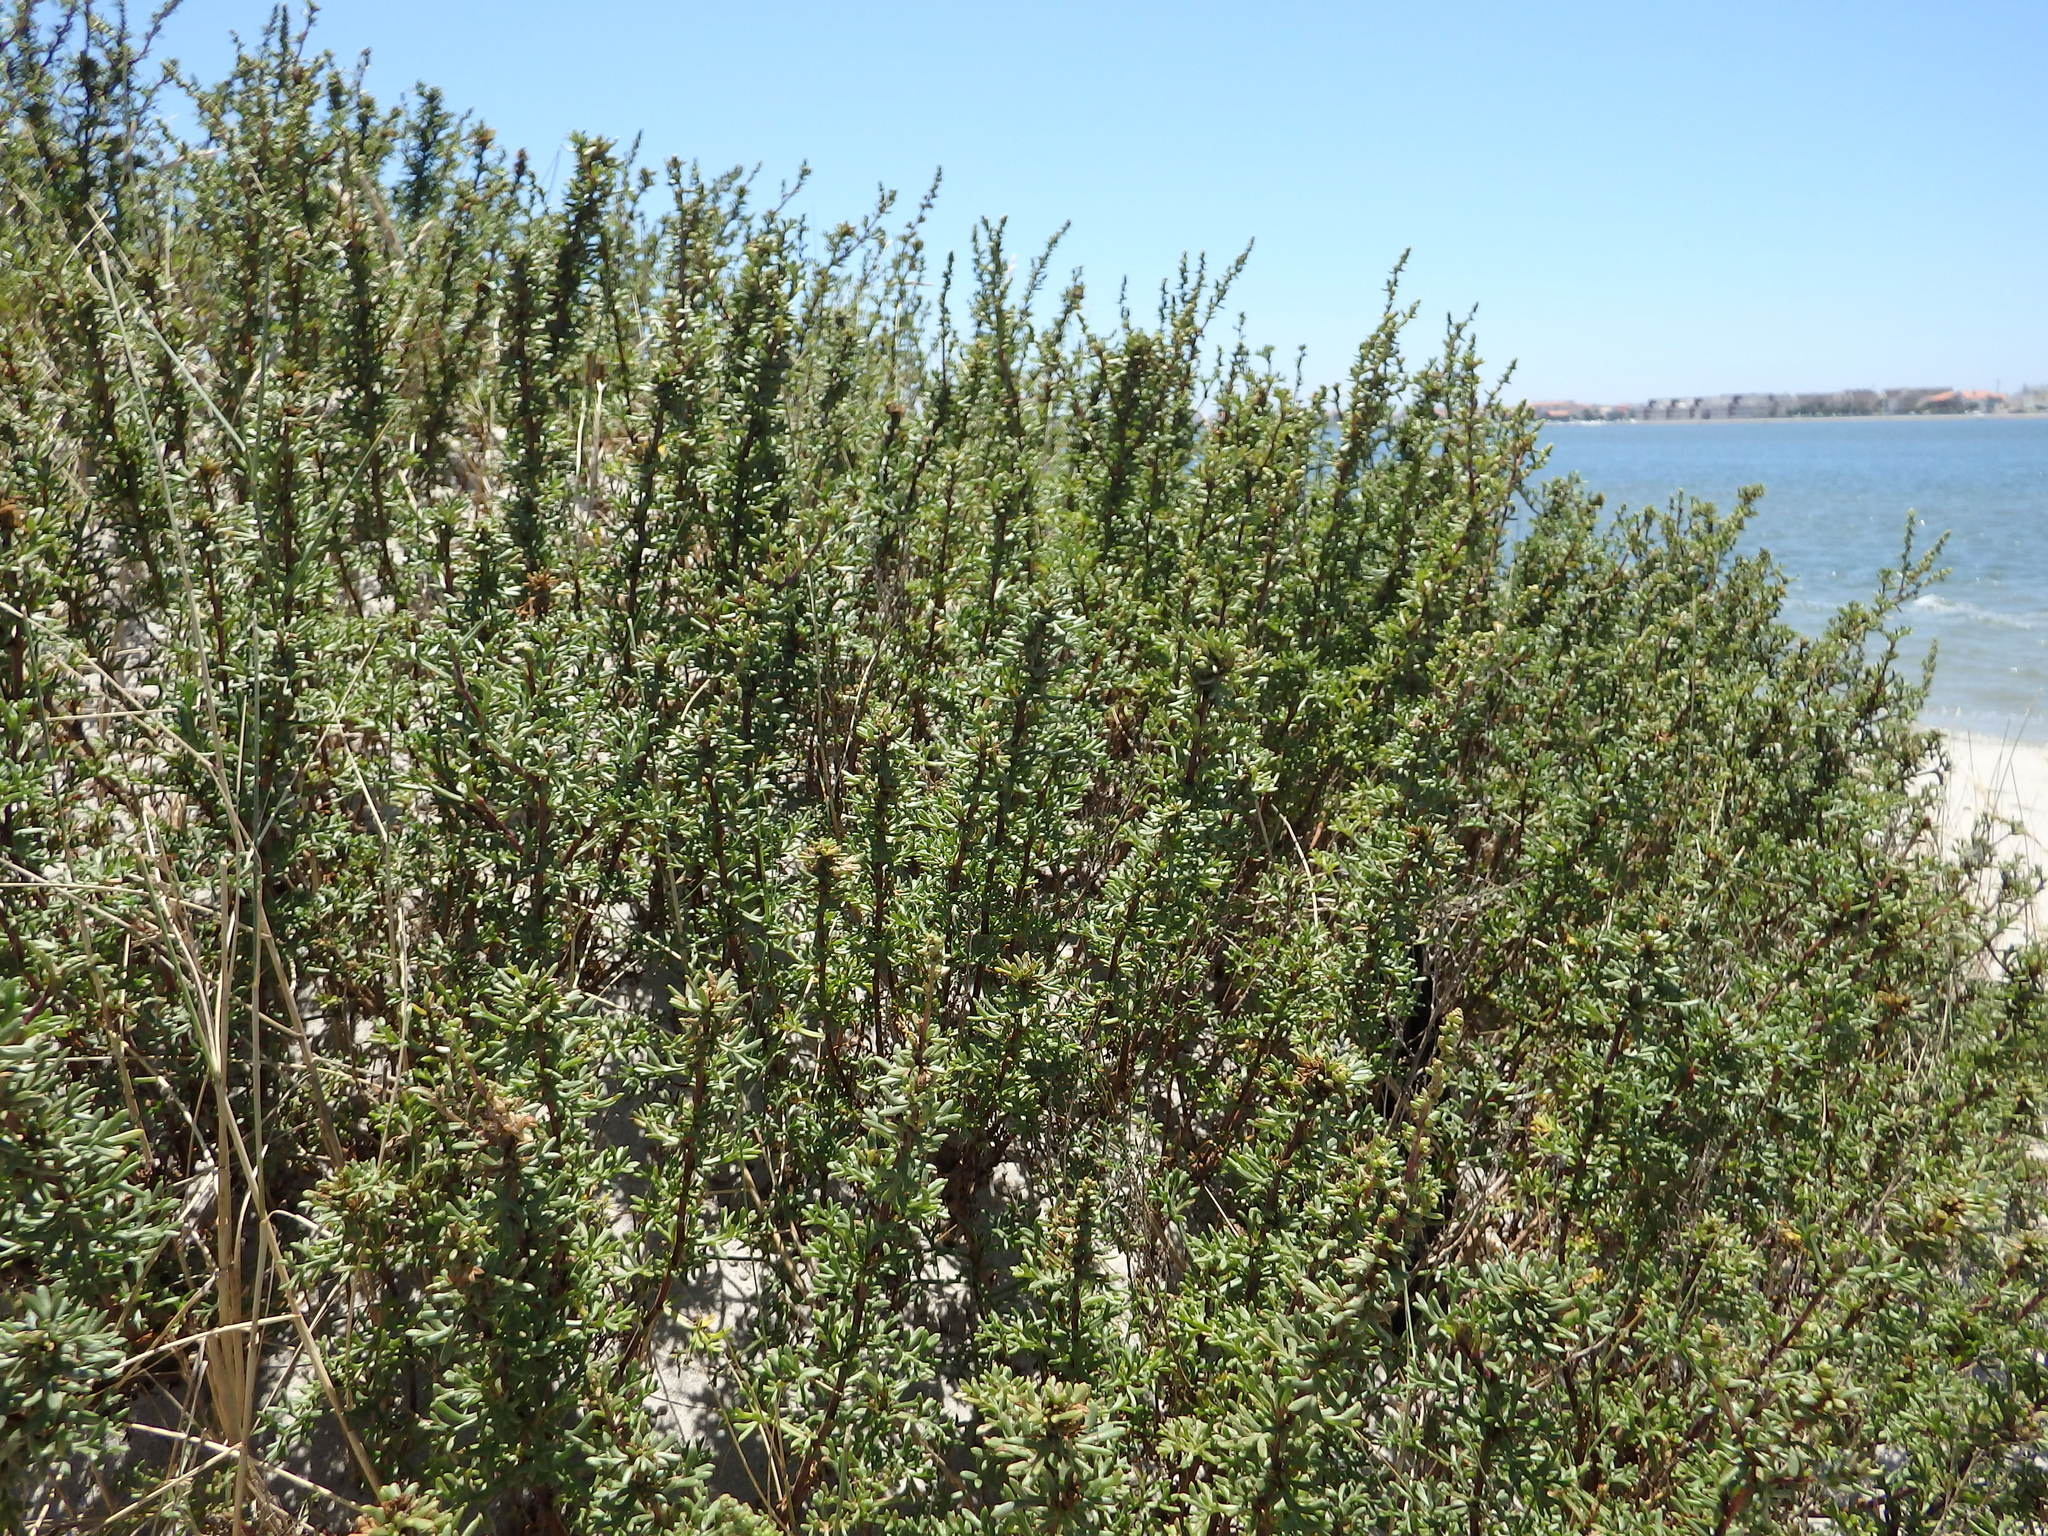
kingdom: Plantae
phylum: Tracheophyta
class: Magnoliopsida
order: Asterales
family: Asteraceae
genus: Artemisia
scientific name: Artemisia crithmifolia
